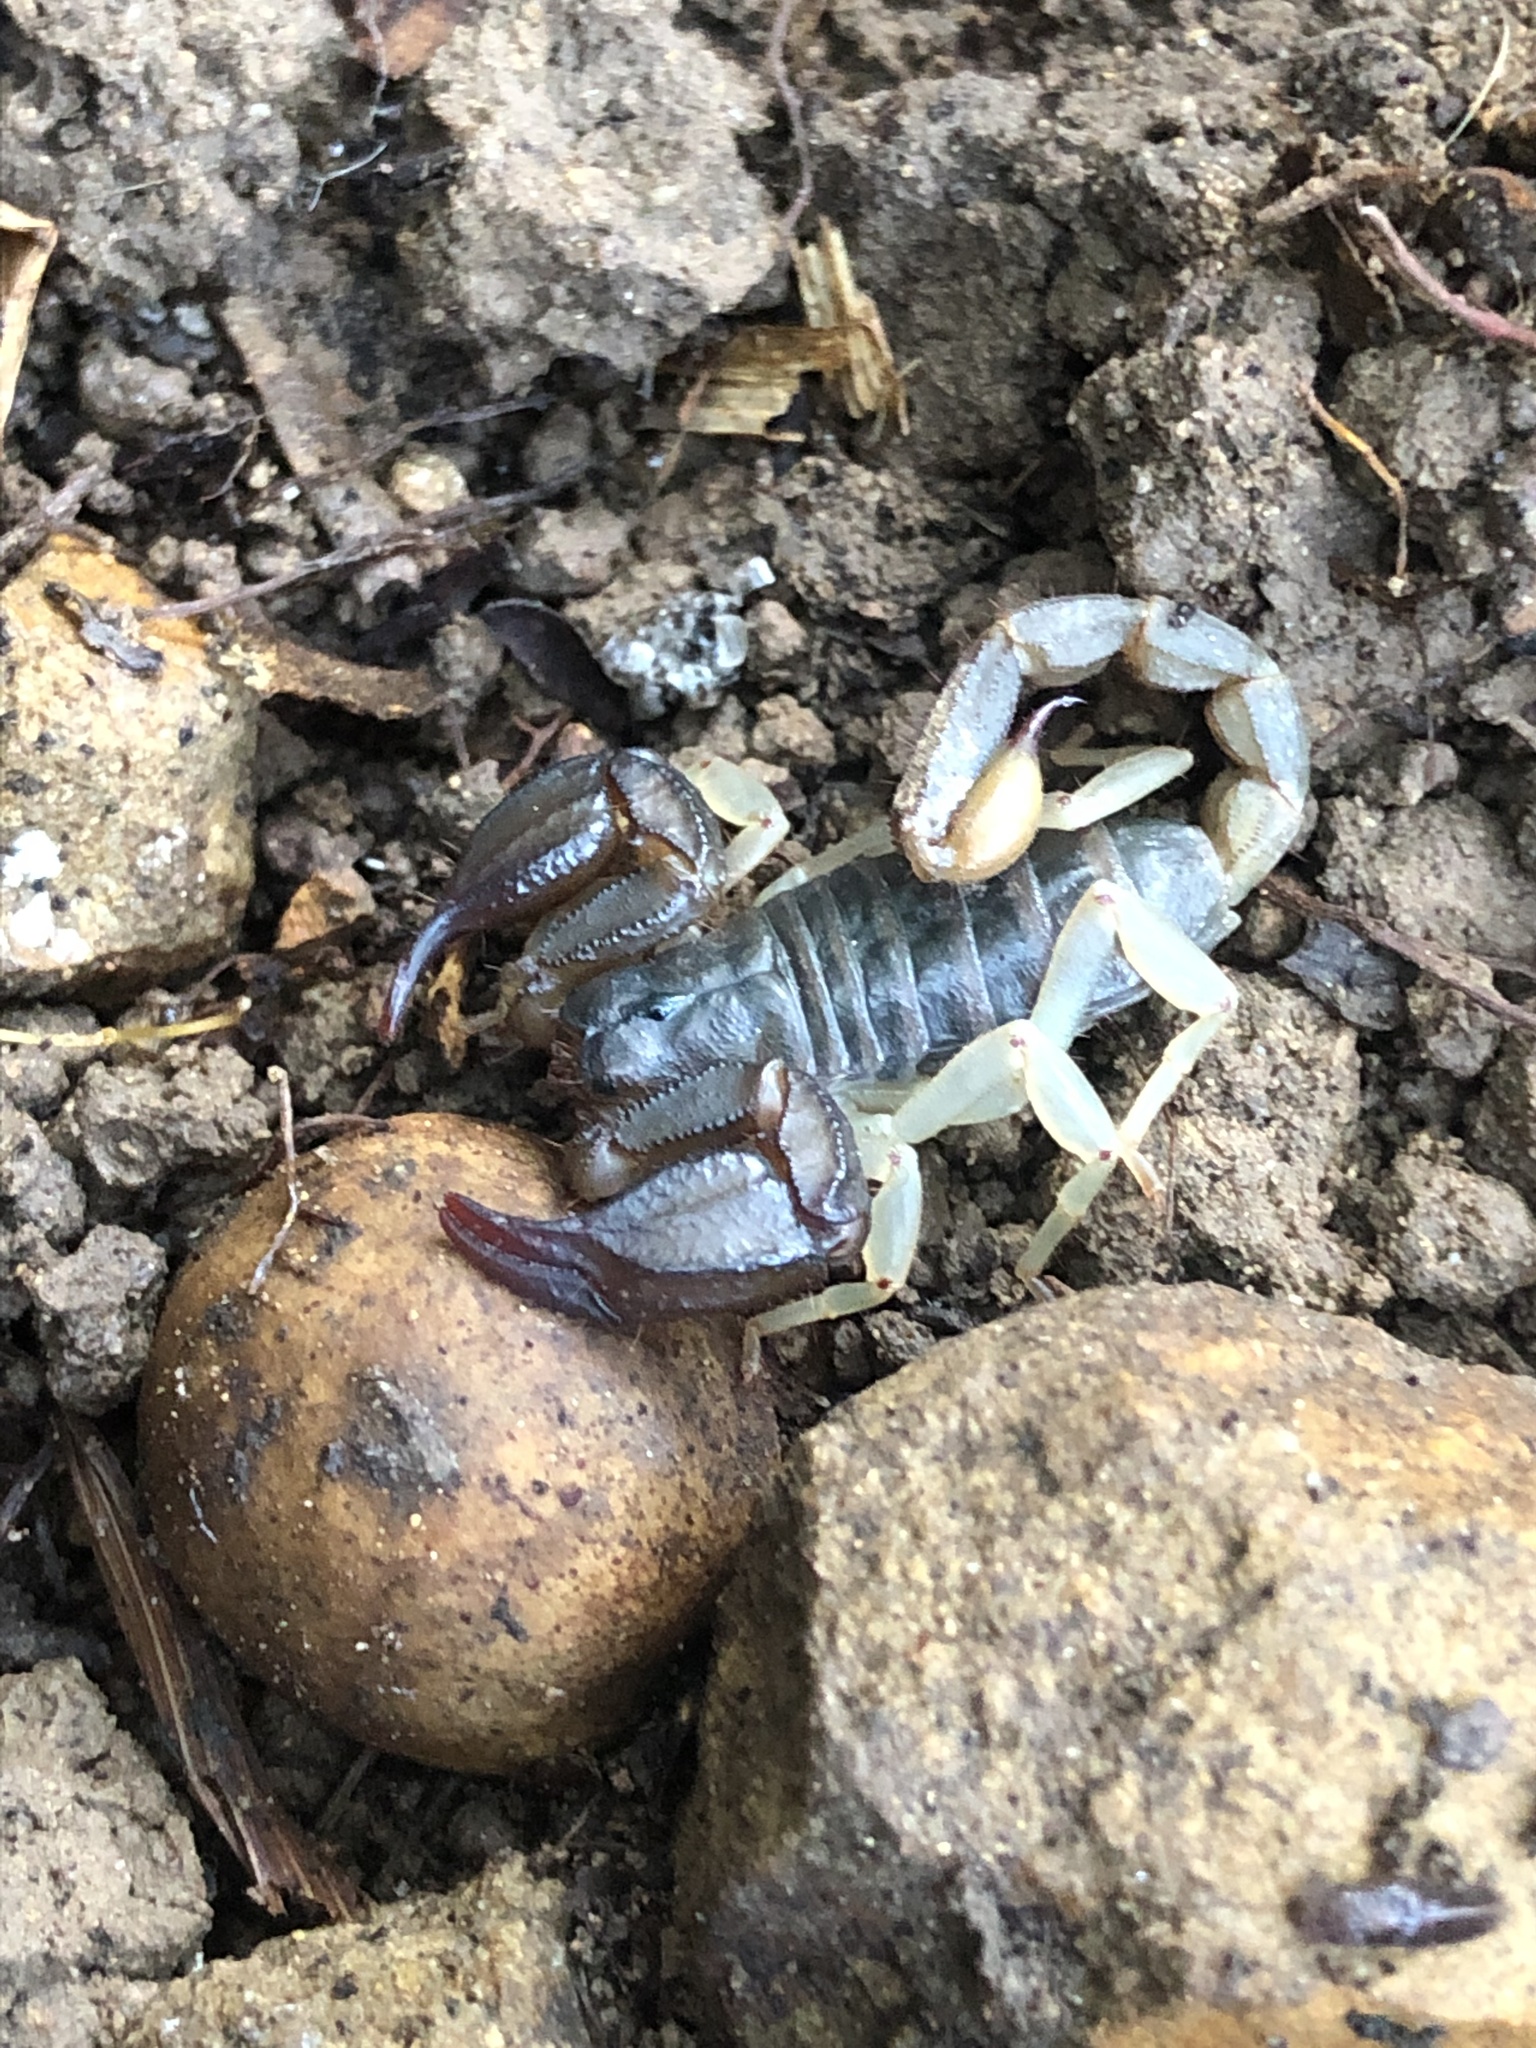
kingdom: Animalia
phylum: Arthropoda
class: Arachnida
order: Scorpiones
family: Chactidae
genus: Uroctonus
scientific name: Uroctonus mordax
